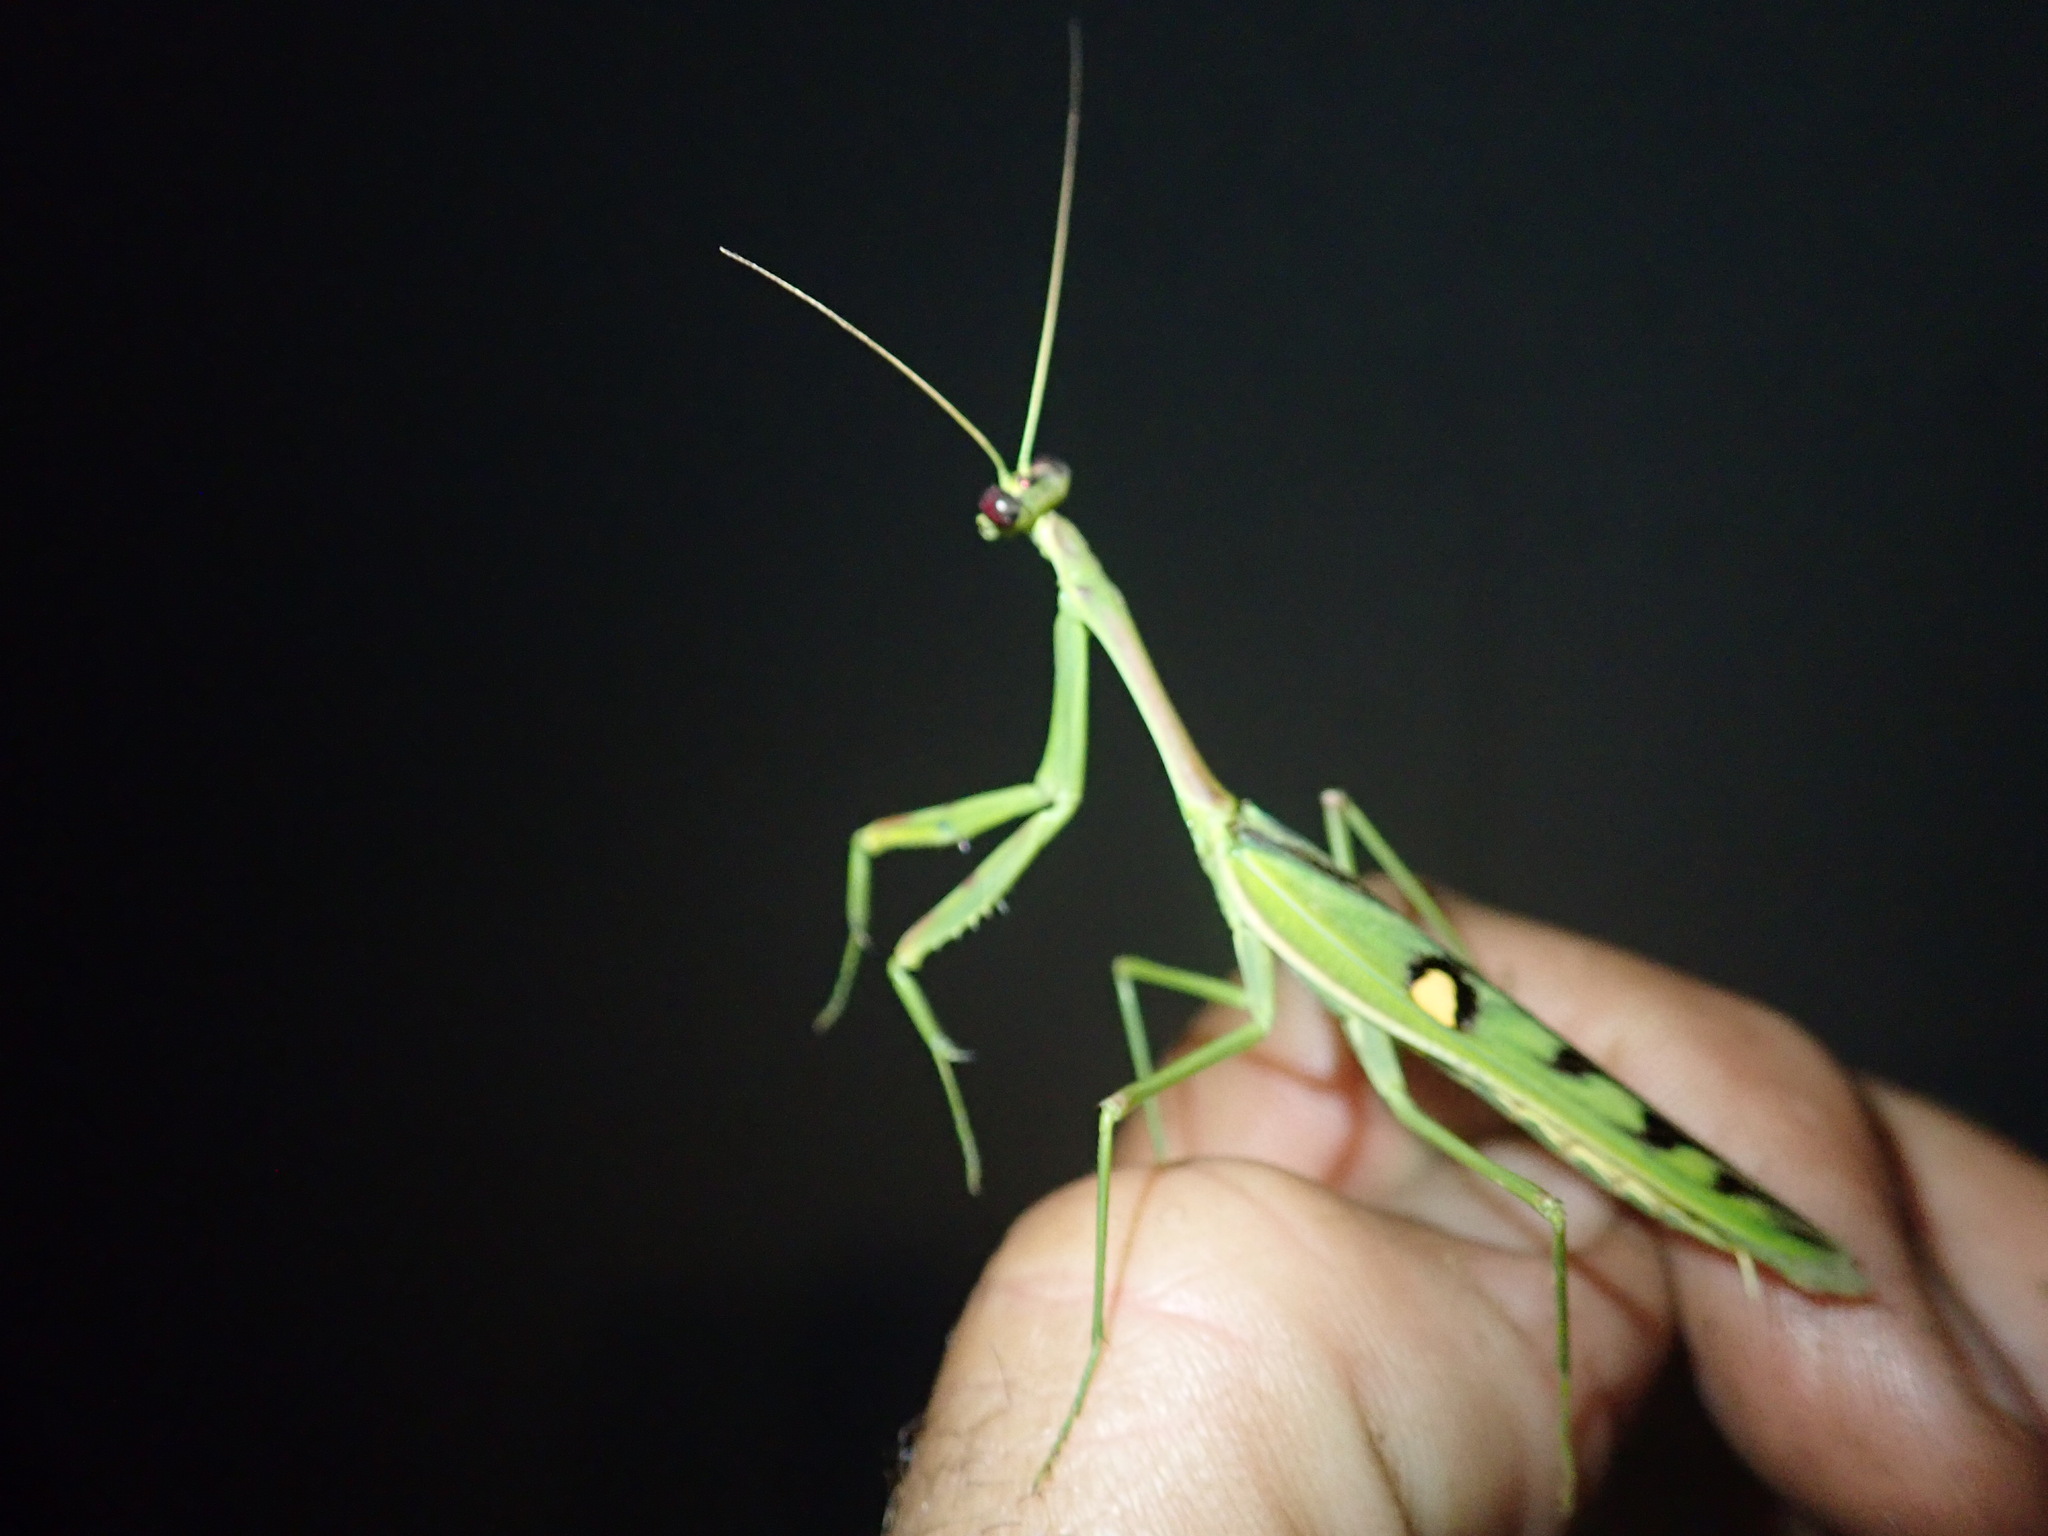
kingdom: Animalia
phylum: Arthropoda
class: Insecta
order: Mantodea
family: Mantidae
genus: Omomantis
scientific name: Omomantis zebrata
